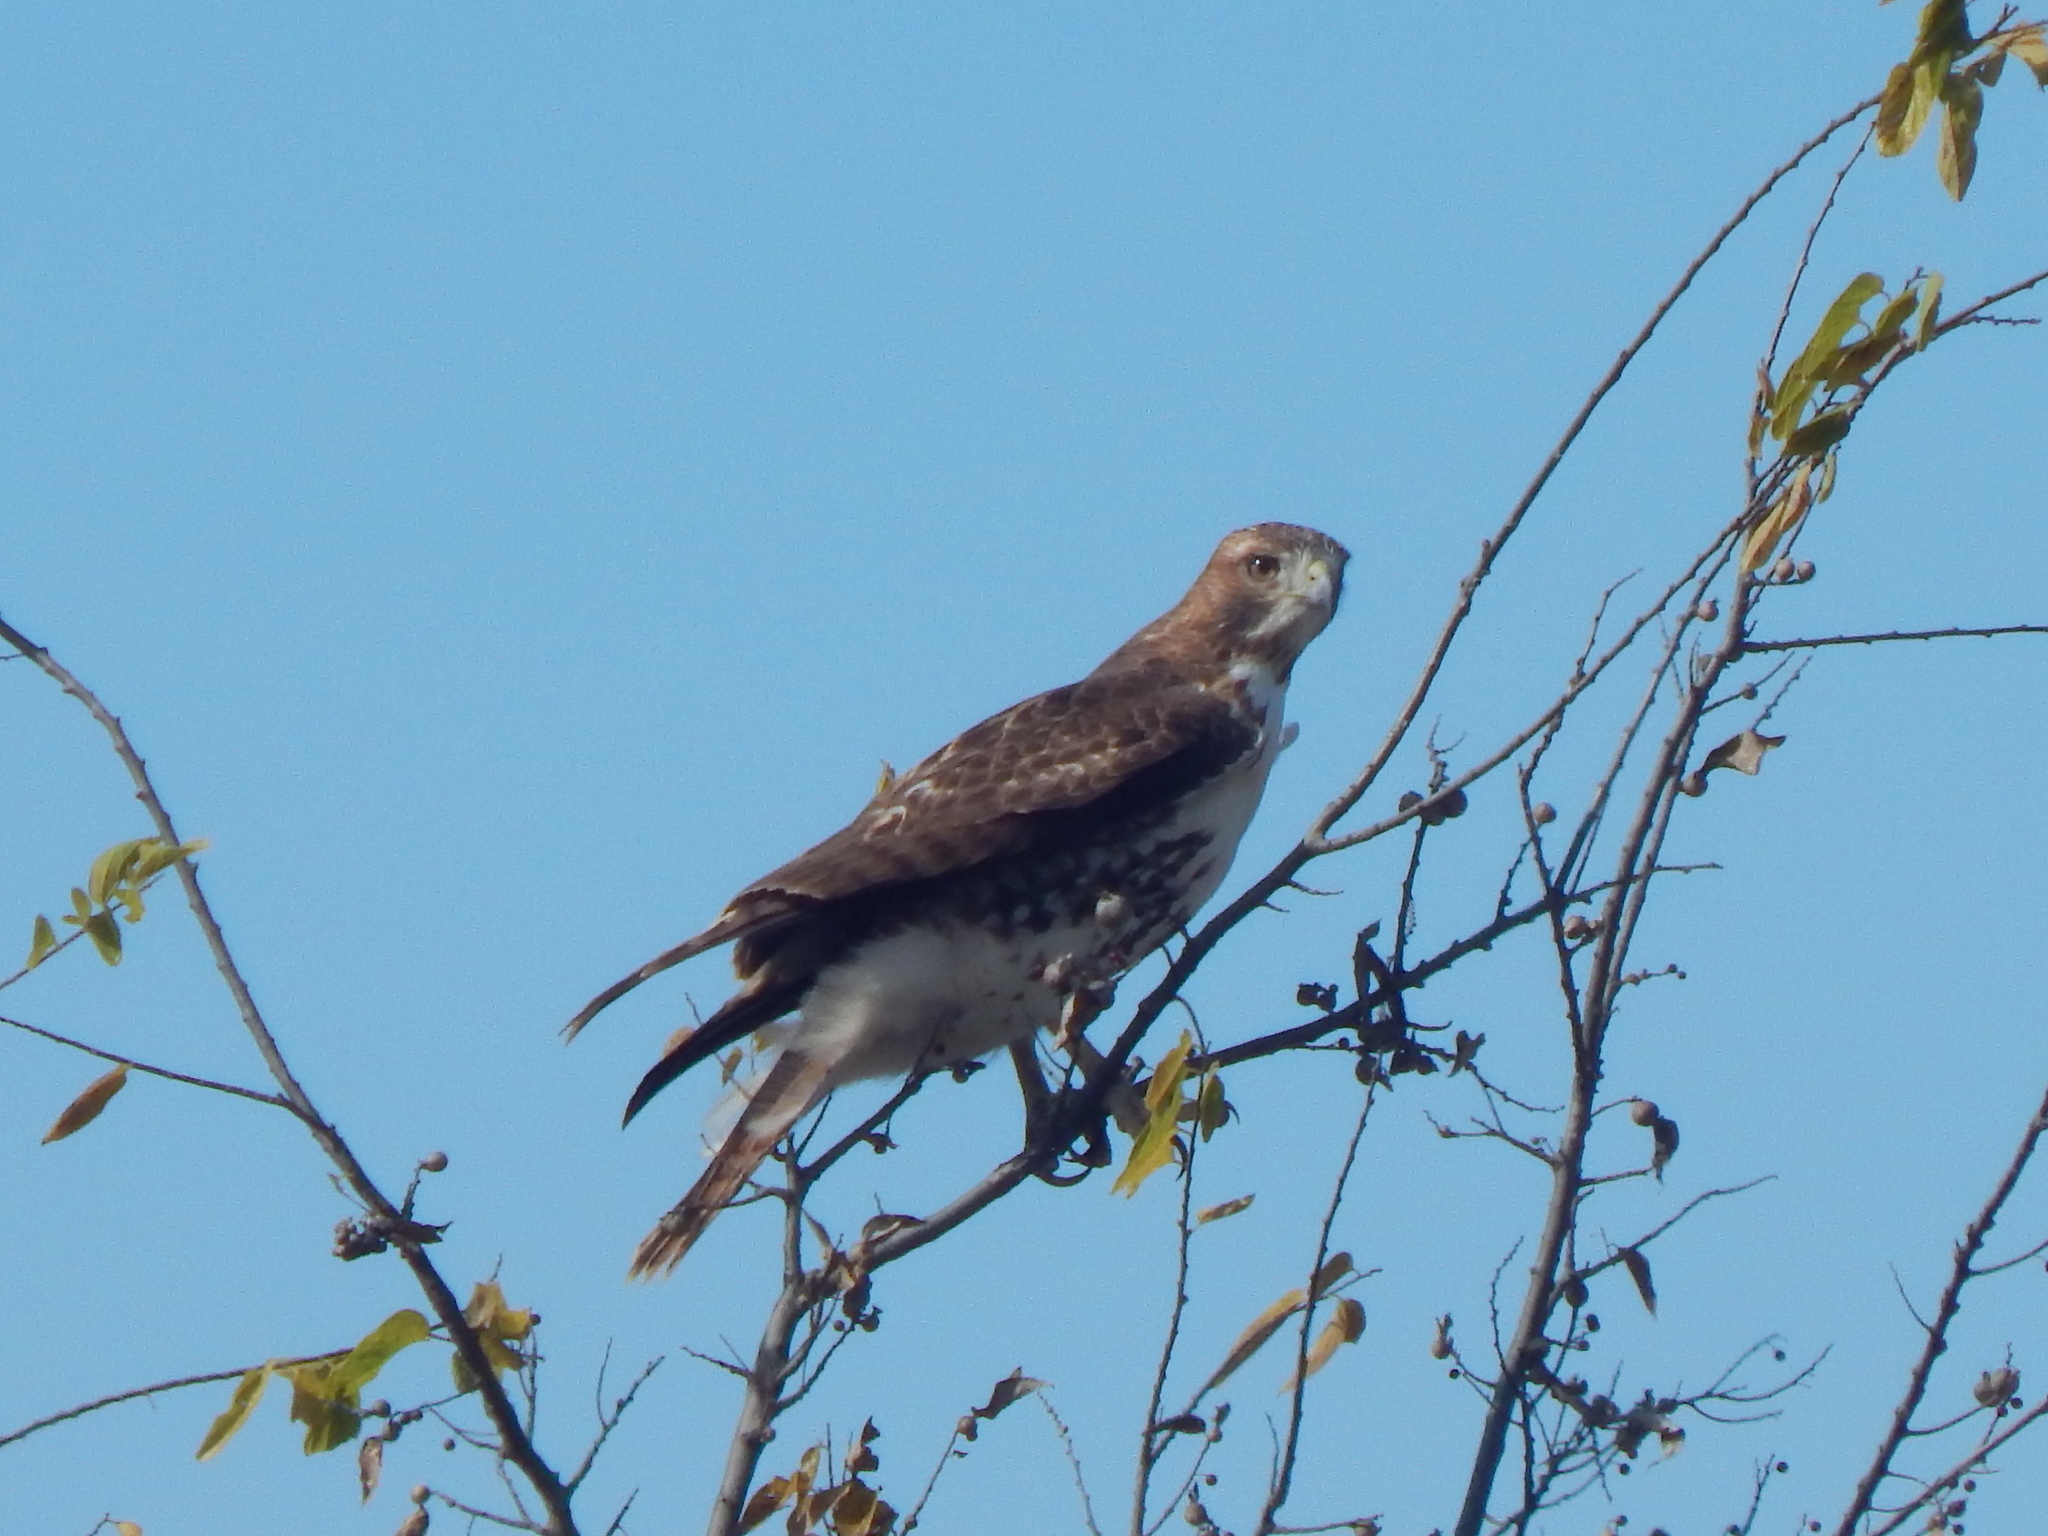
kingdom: Animalia
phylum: Chordata
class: Aves
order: Accipitriformes
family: Accipitridae
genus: Buteo
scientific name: Buteo jamaicensis
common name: Red-tailed hawk
